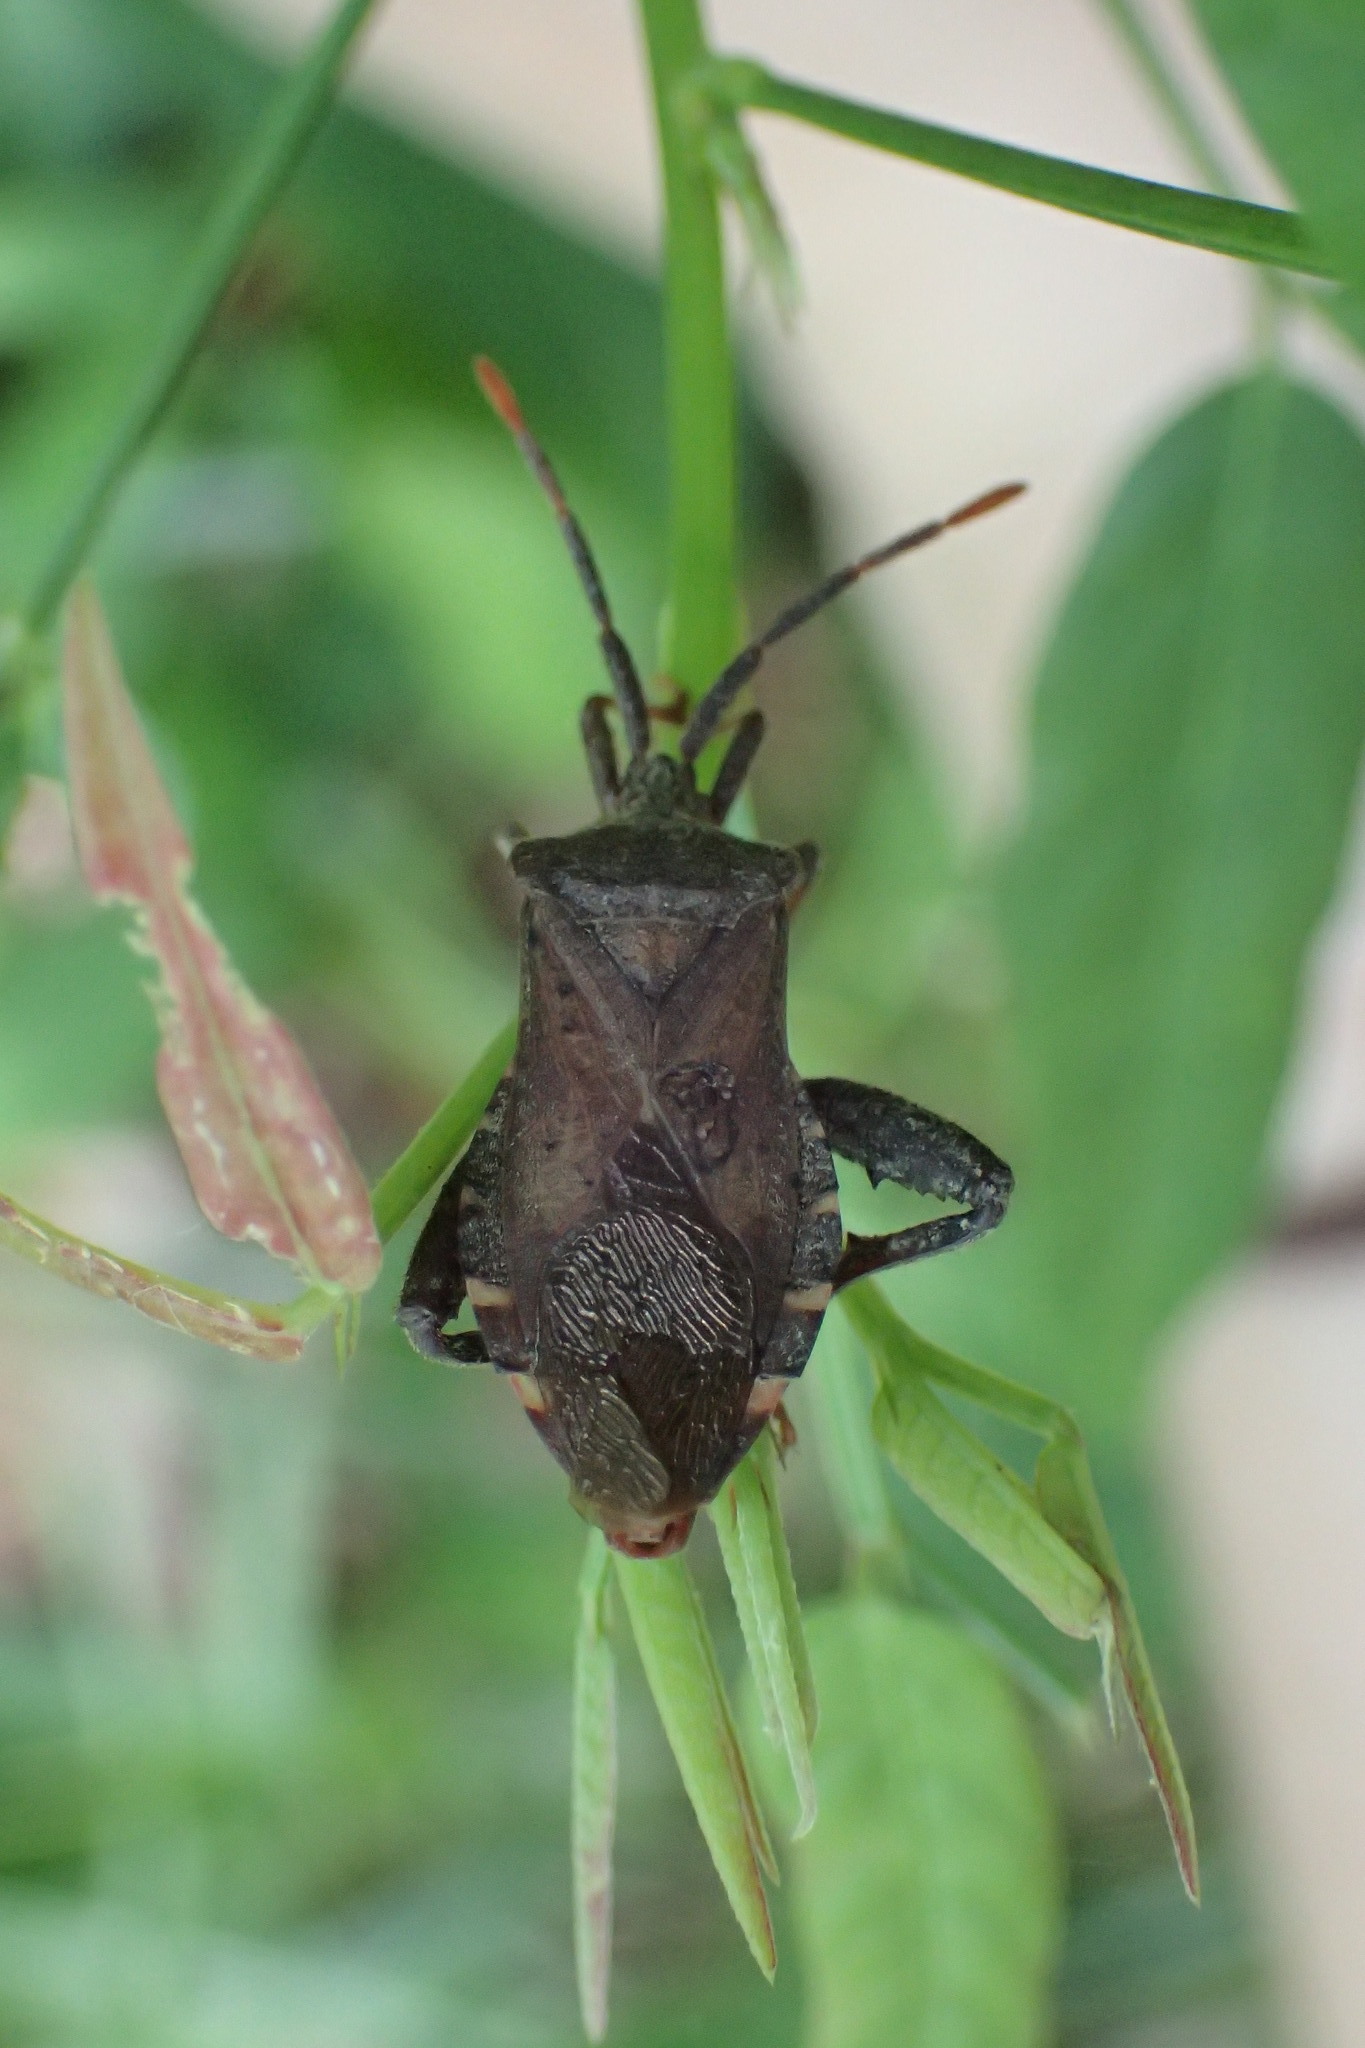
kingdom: Animalia
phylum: Arthropoda
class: Insecta
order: Hemiptera
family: Coreidae
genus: Piezogaster
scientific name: Piezogaster calcarator
